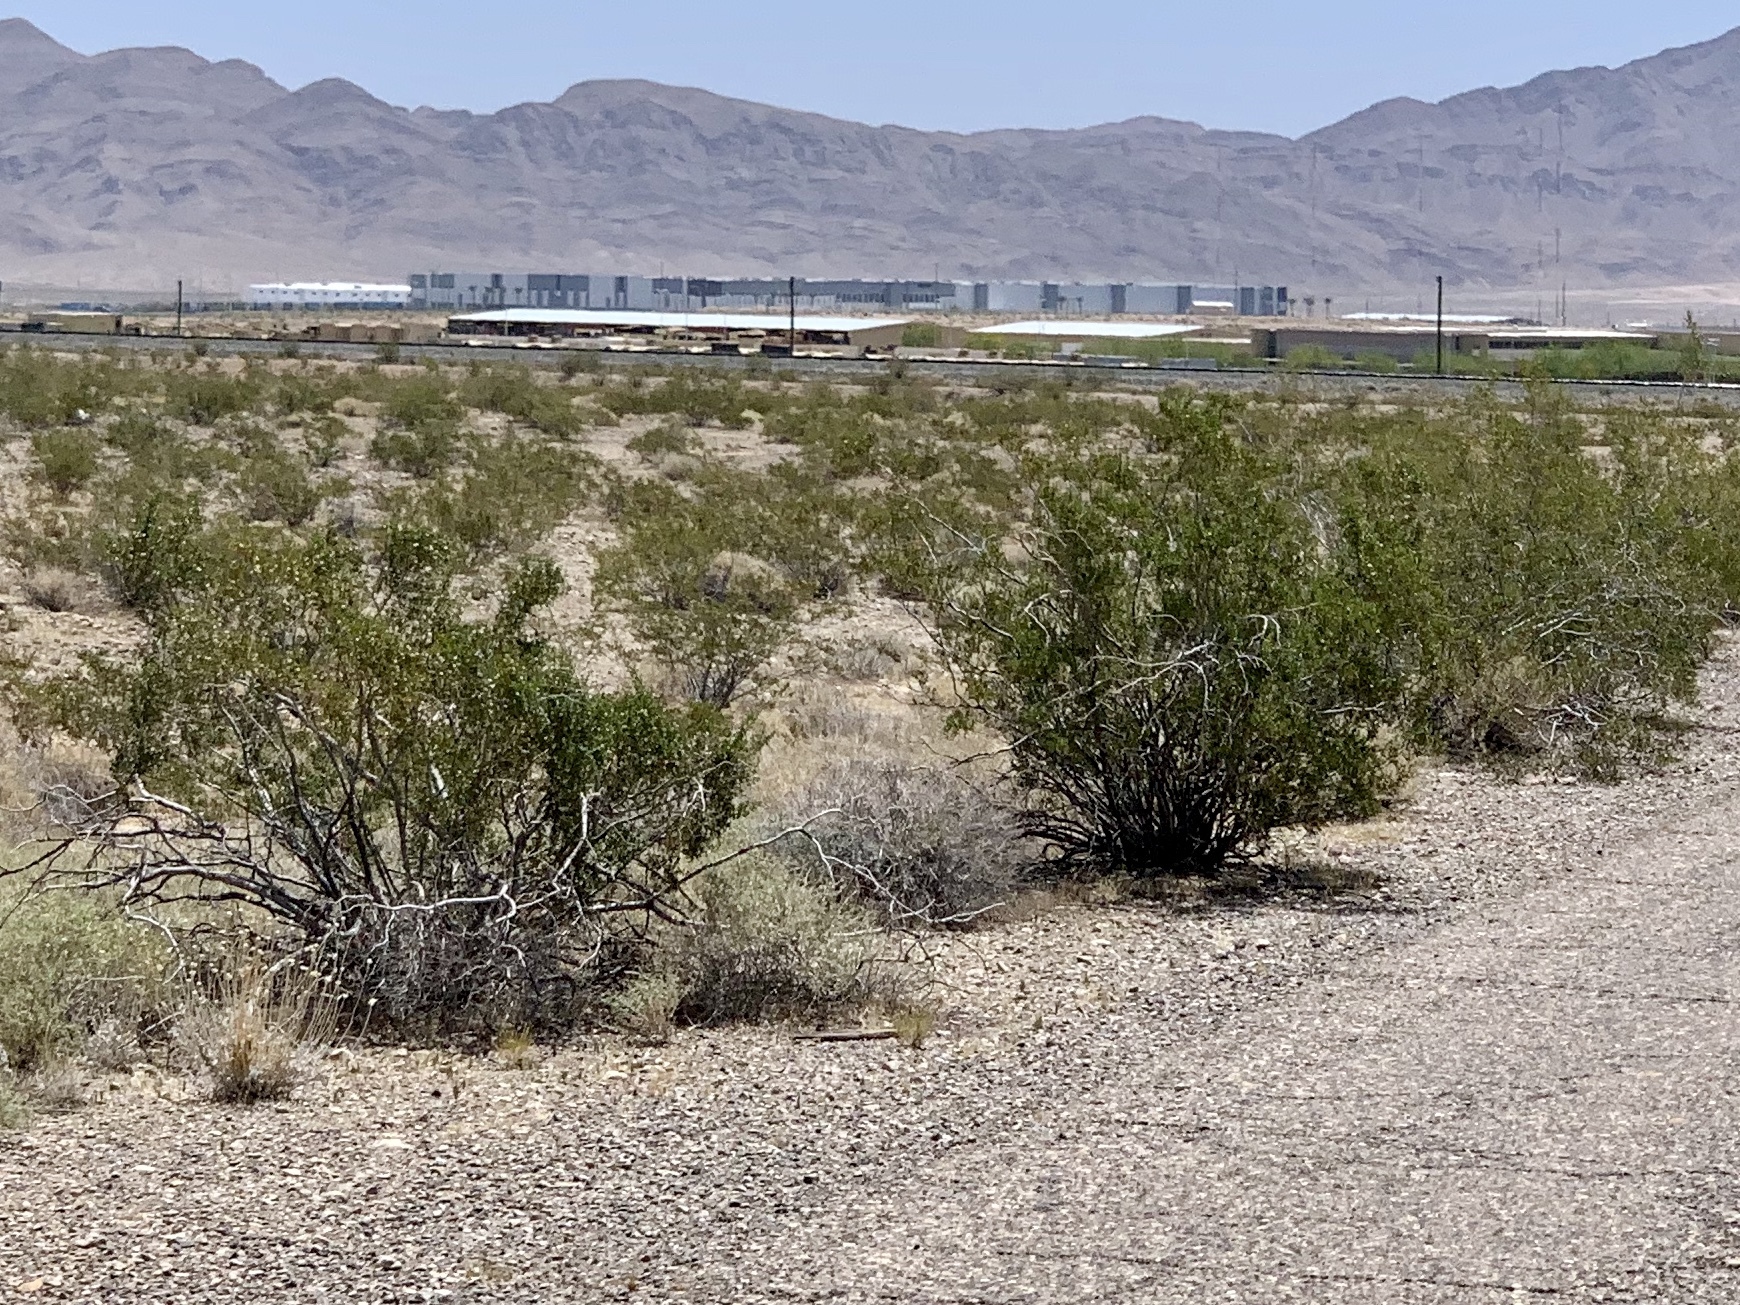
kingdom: Plantae
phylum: Tracheophyta
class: Magnoliopsida
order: Zygophyllales
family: Zygophyllaceae
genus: Larrea
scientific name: Larrea tridentata
